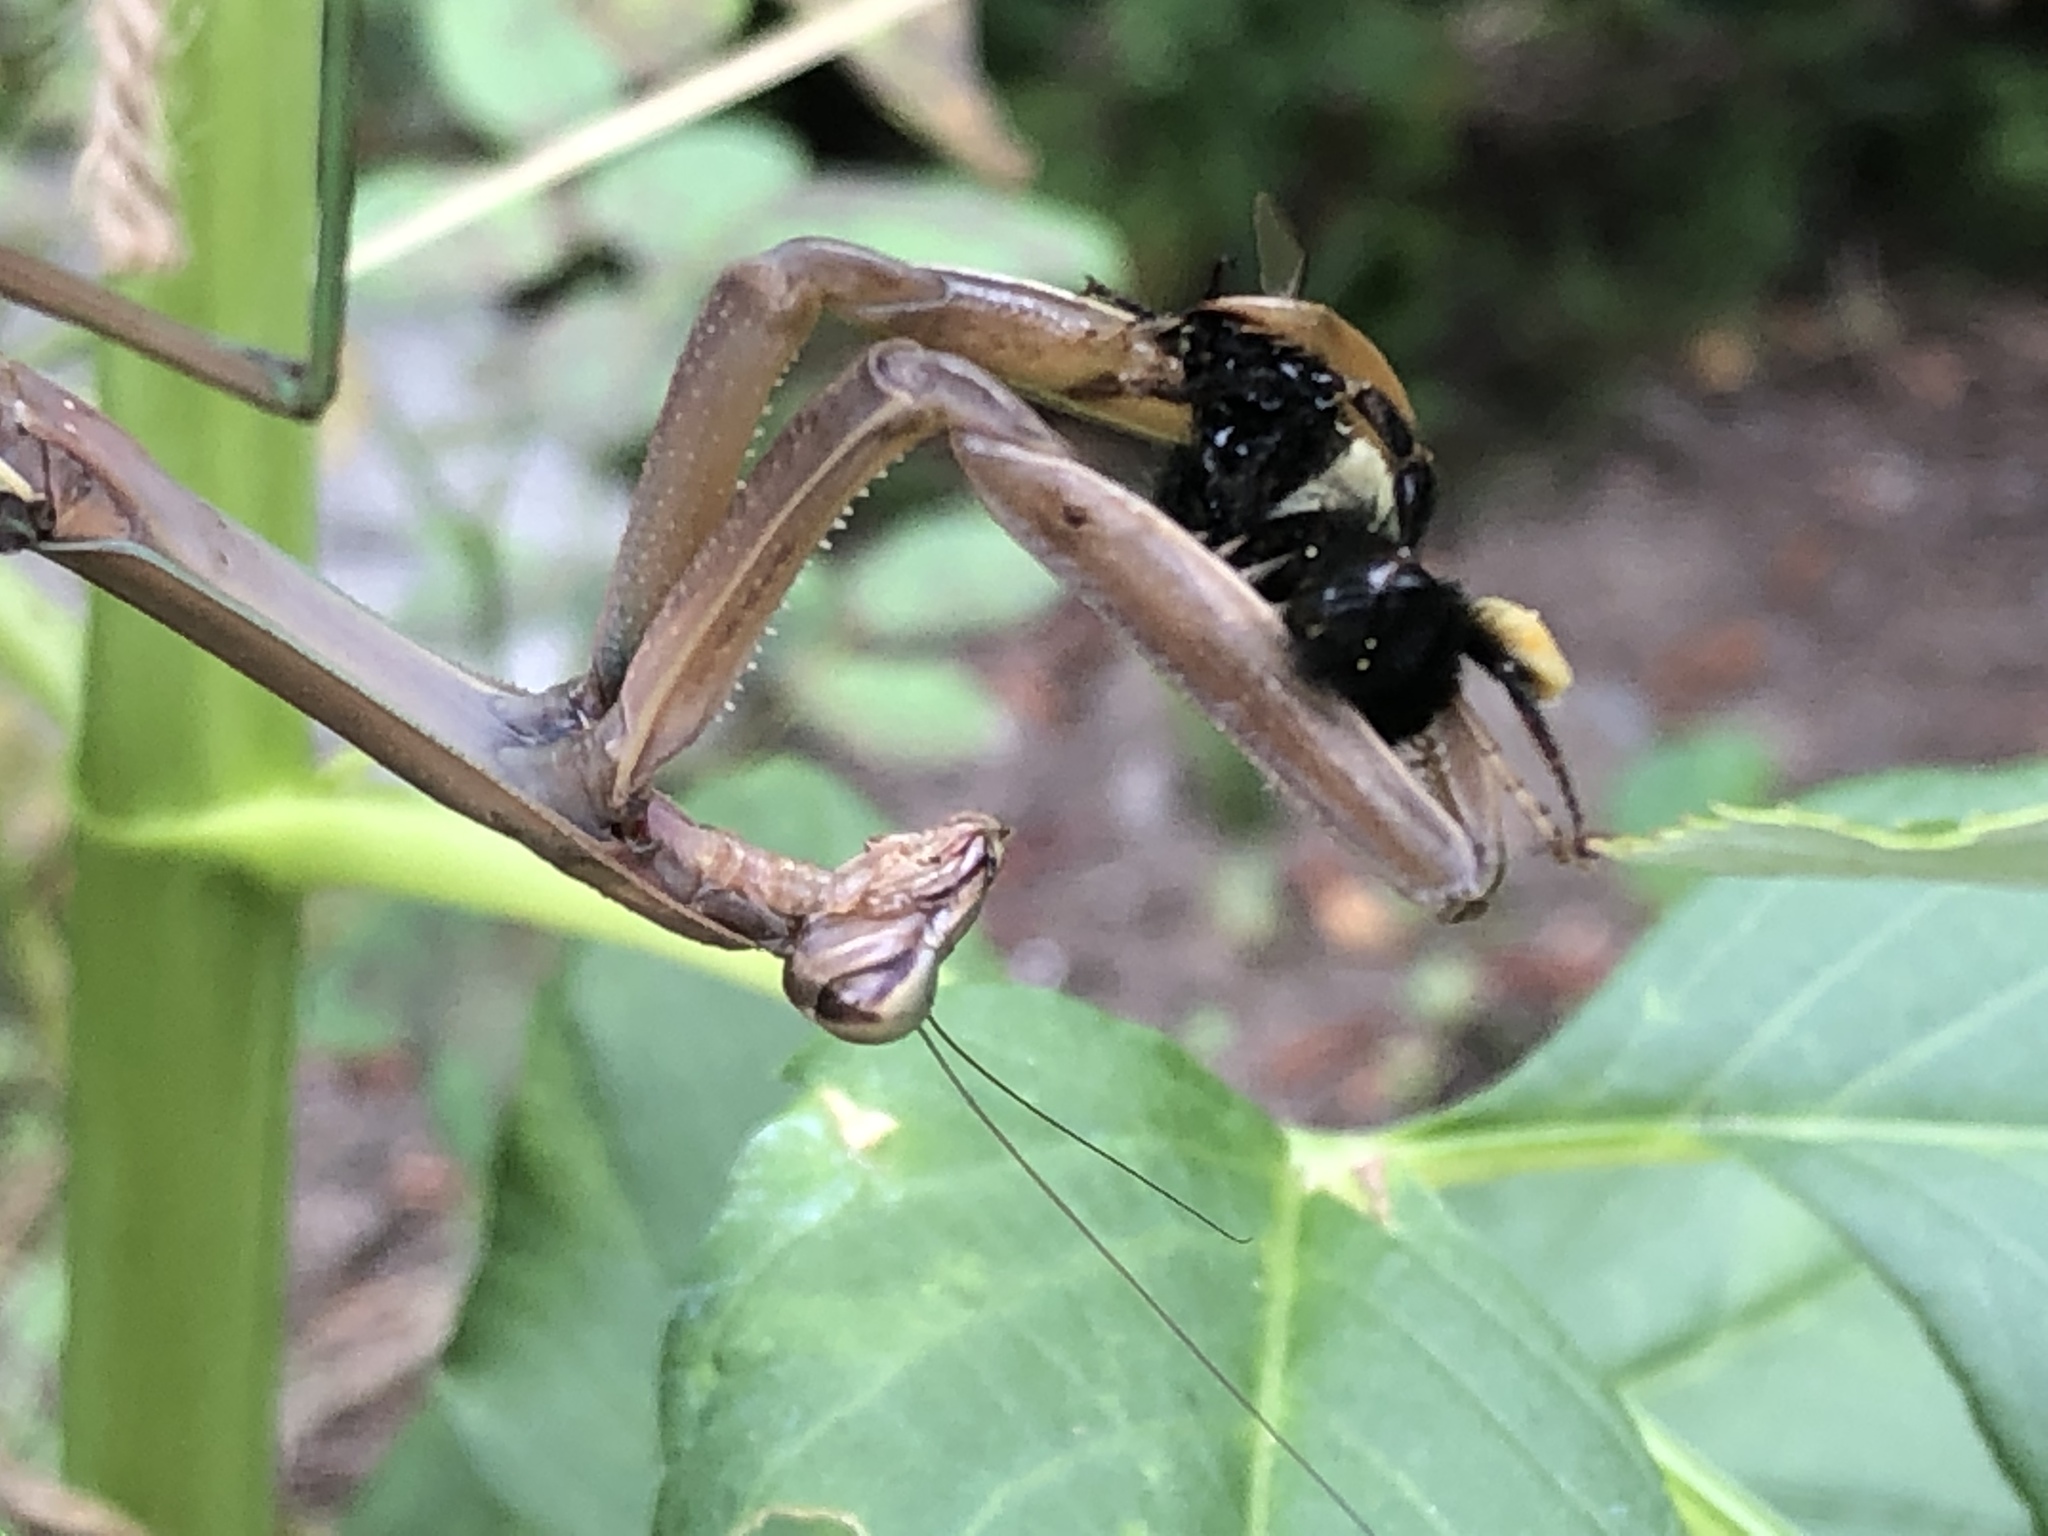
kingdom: Animalia
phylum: Arthropoda
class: Insecta
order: Mantodea
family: Mantidae
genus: Tenodera
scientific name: Tenodera sinensis
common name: Chinese mantis
